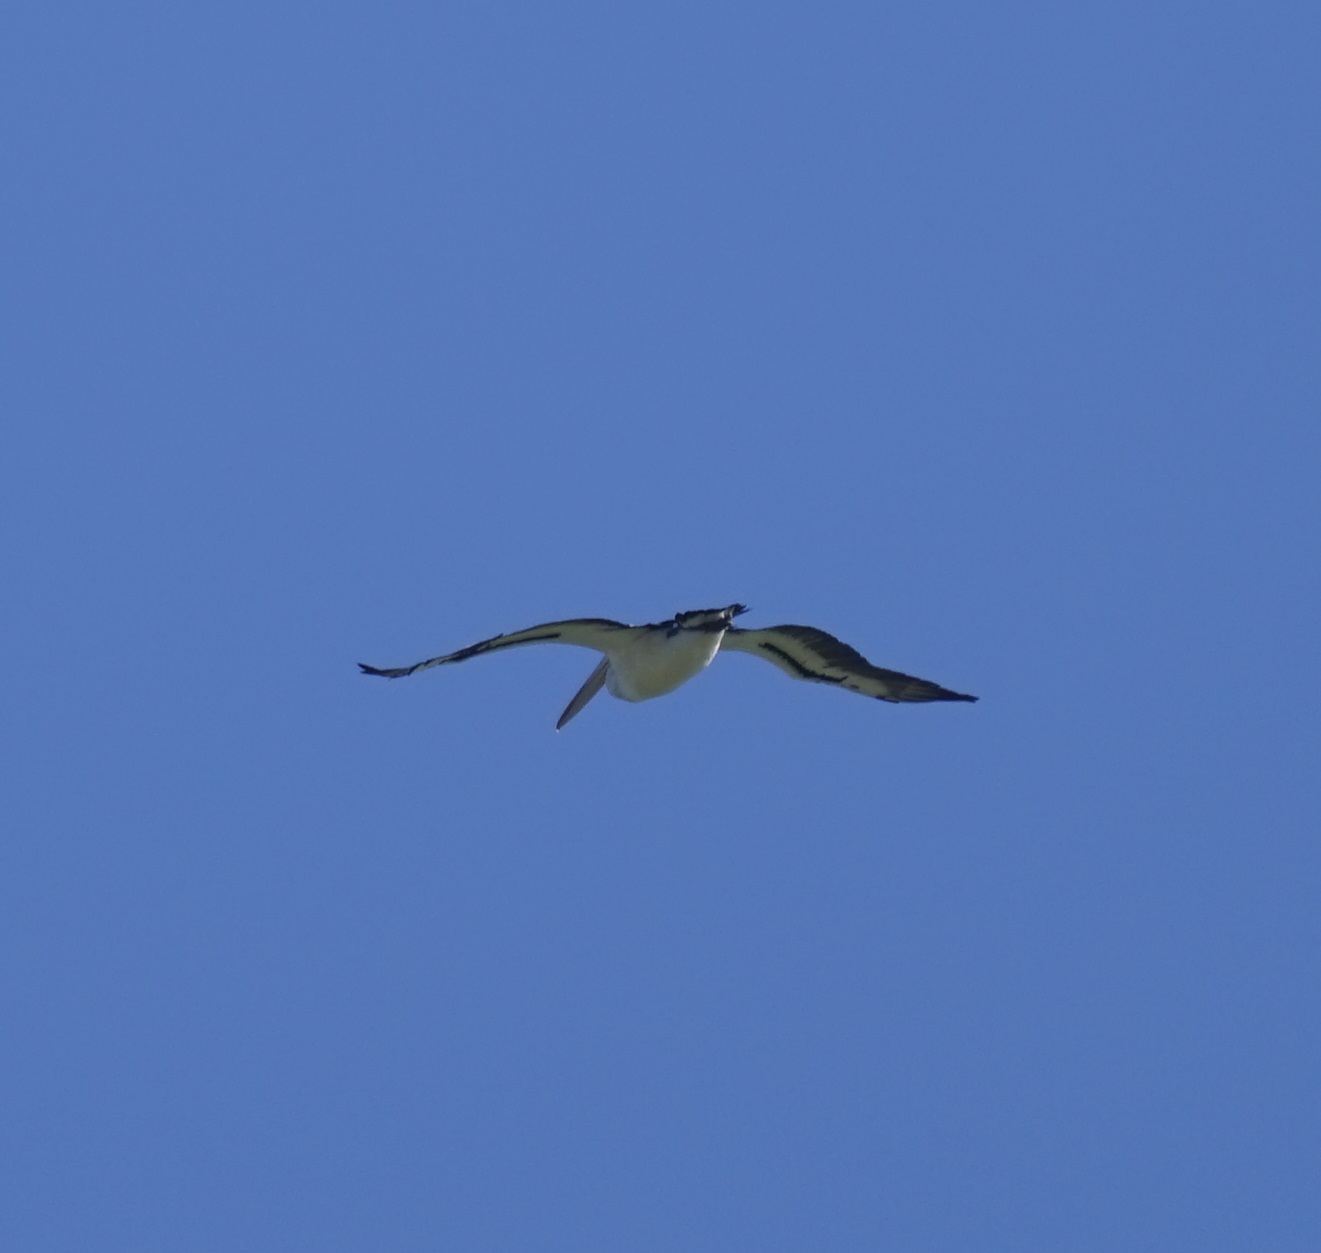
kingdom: Animalia
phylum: Chordata
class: Aves
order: Pelecaniformes
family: Pelecanidae
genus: Pelecanus
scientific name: Pelecanus conspicillatus
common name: Australian pelican
